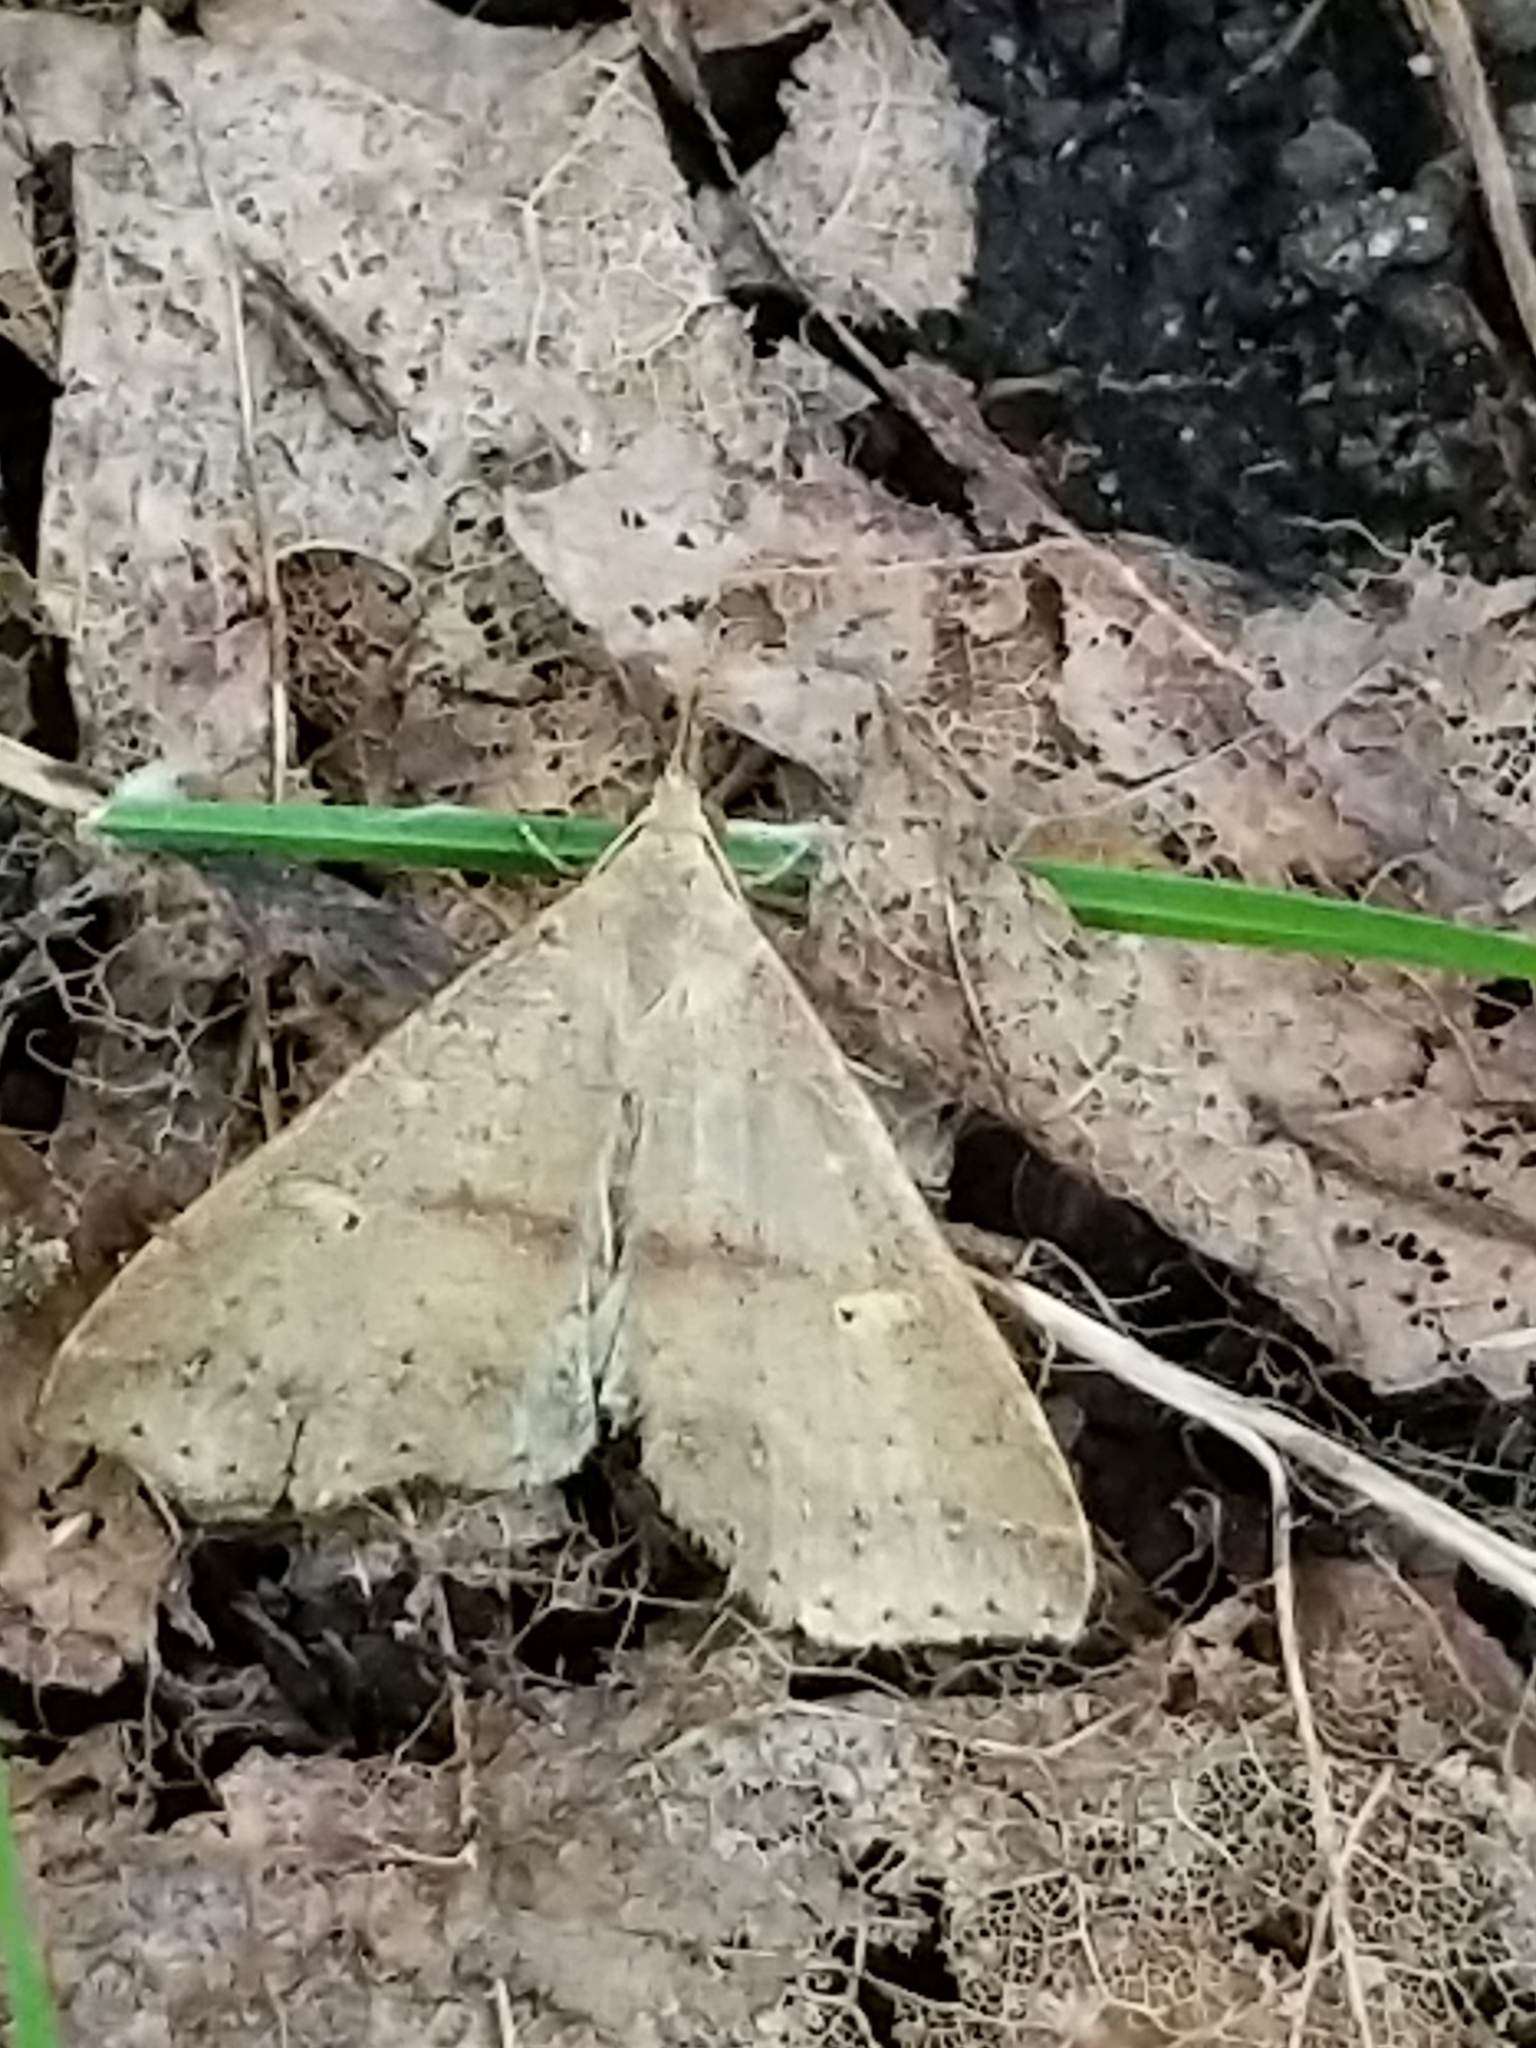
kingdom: Animalia
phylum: Arthropoda
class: Insecta
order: Lepidoptera
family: Erebidae
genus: Renia
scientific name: Renia salusalis
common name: Dotted renia moth
